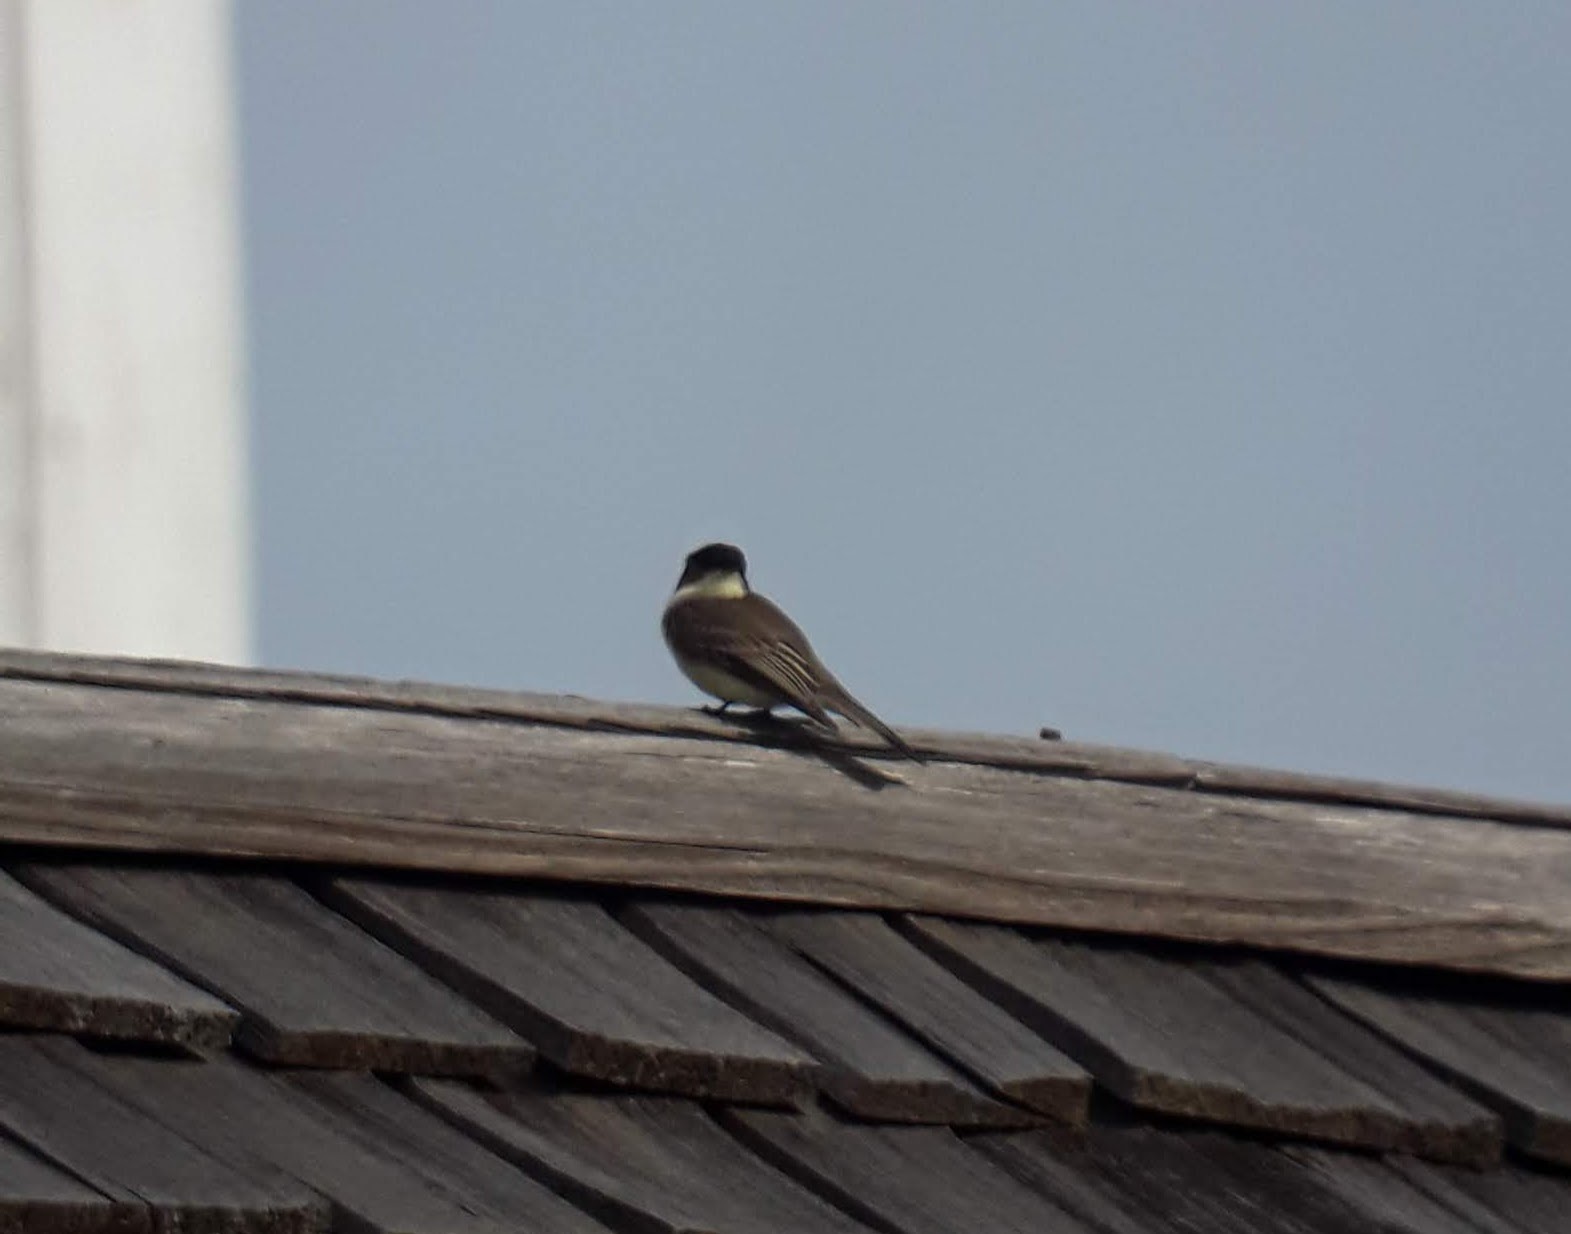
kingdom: Animalia
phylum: Chordata
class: Aves
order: Passeriformes
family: Tyrannidae
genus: Sayornis
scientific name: Sayornis phoebe
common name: Eastern phoebe
